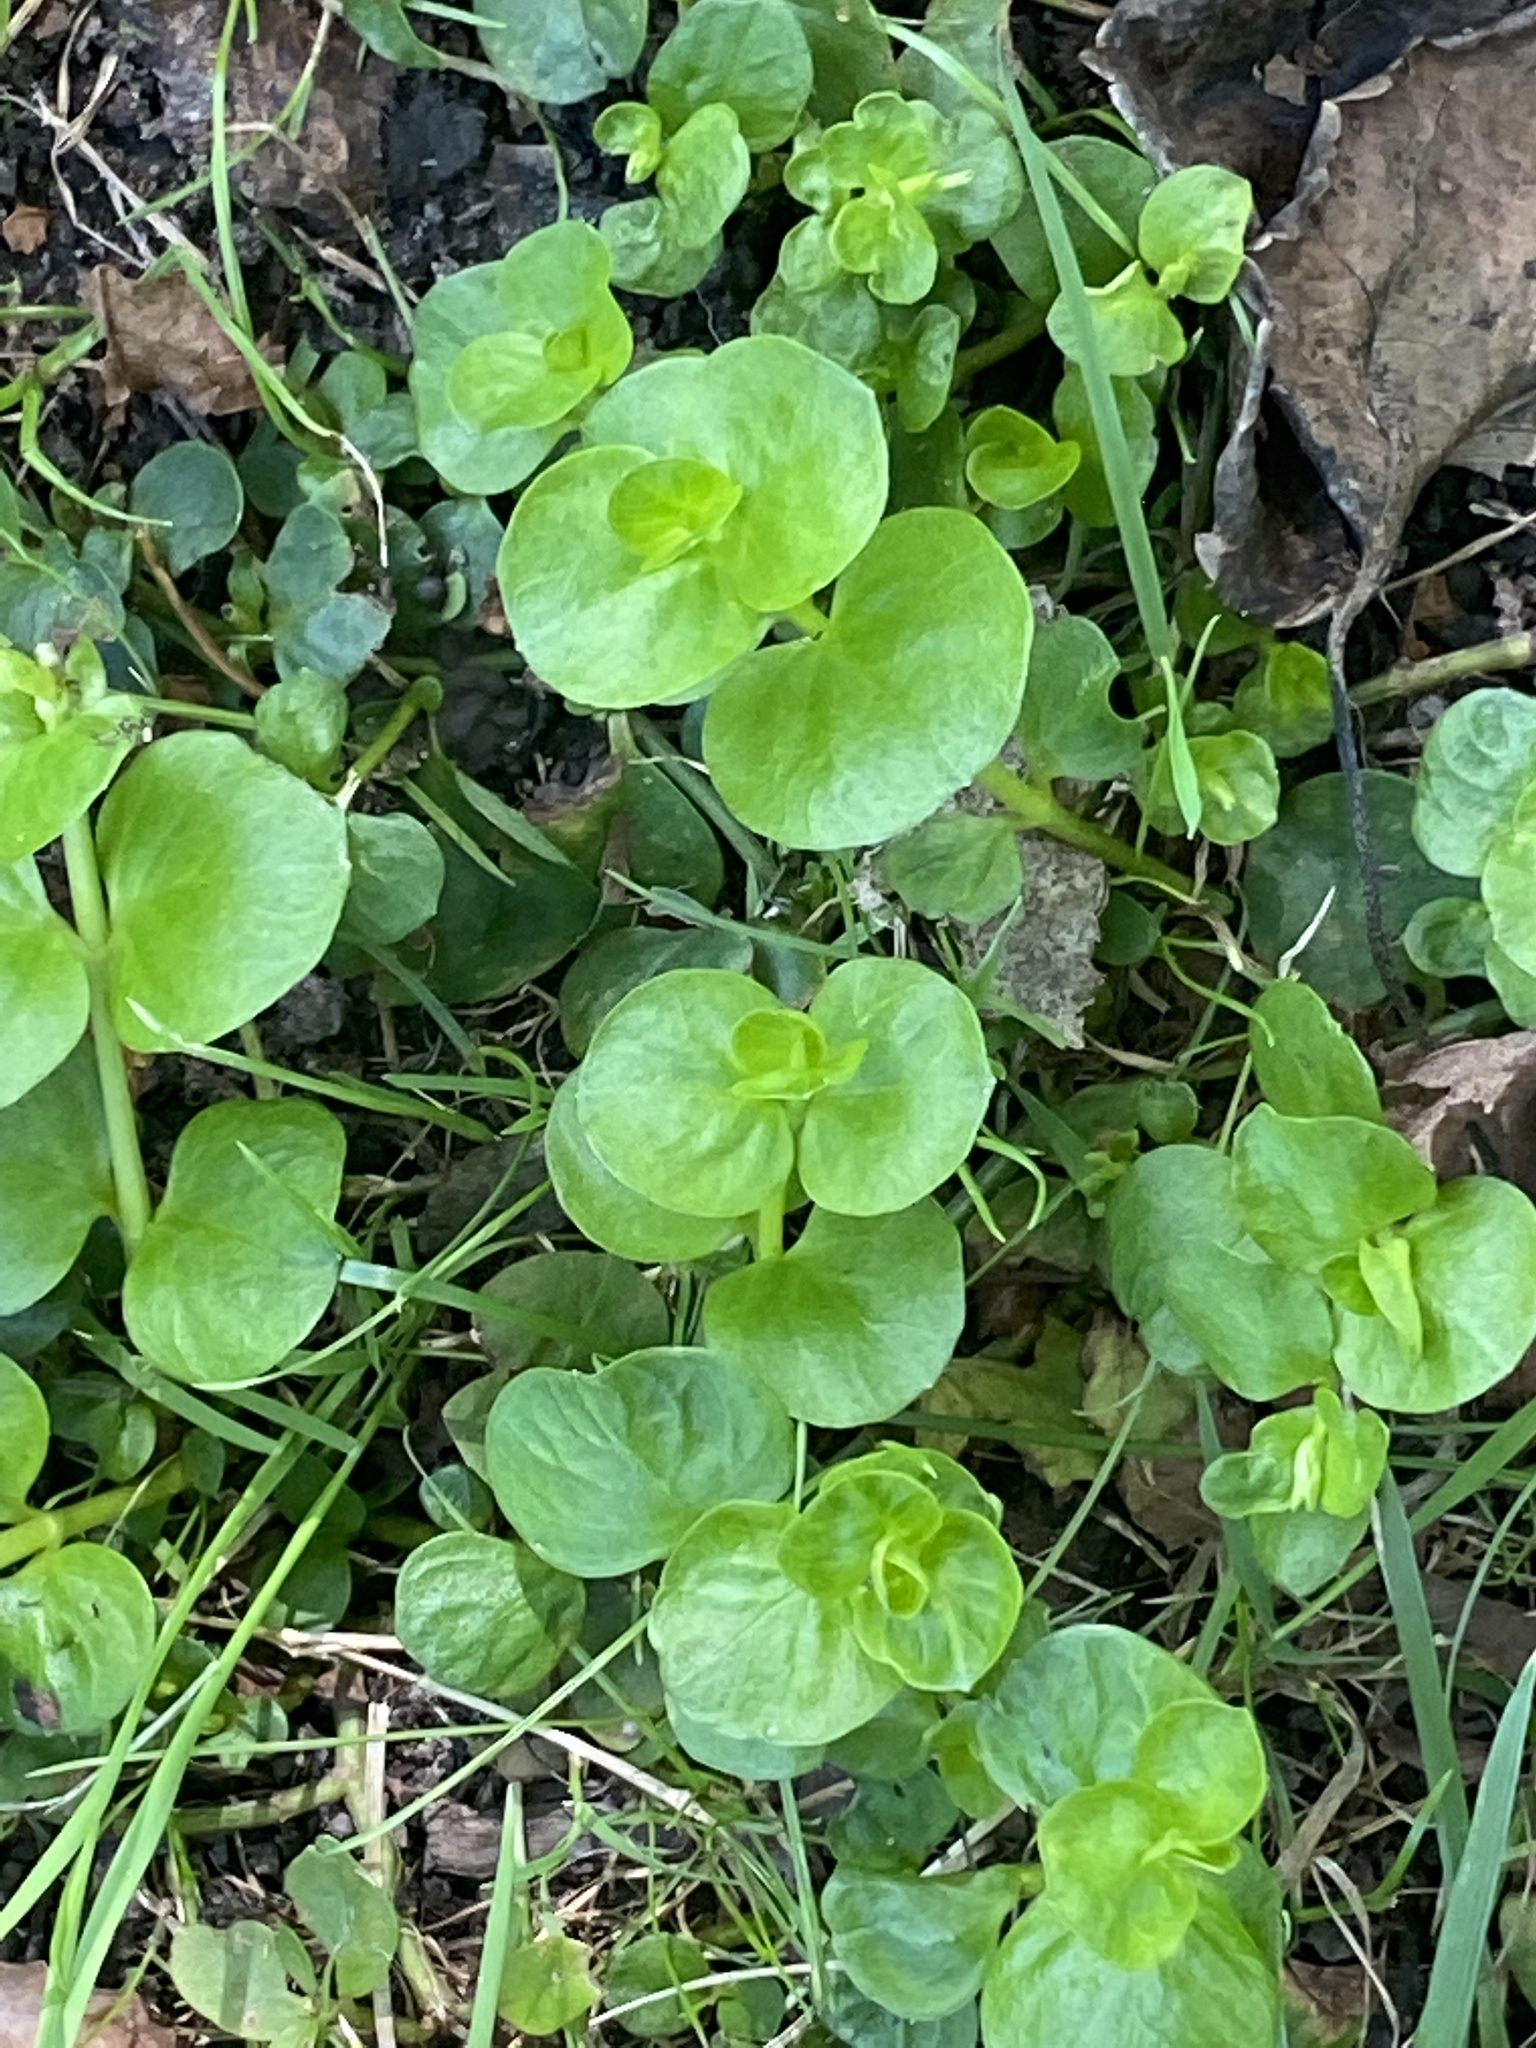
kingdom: Plantae
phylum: Tracheophyta
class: Magnoliopsida
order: Ericales
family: Primulaceae
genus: Lysimachia
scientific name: Lysimachia nummularia
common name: Moneywort
